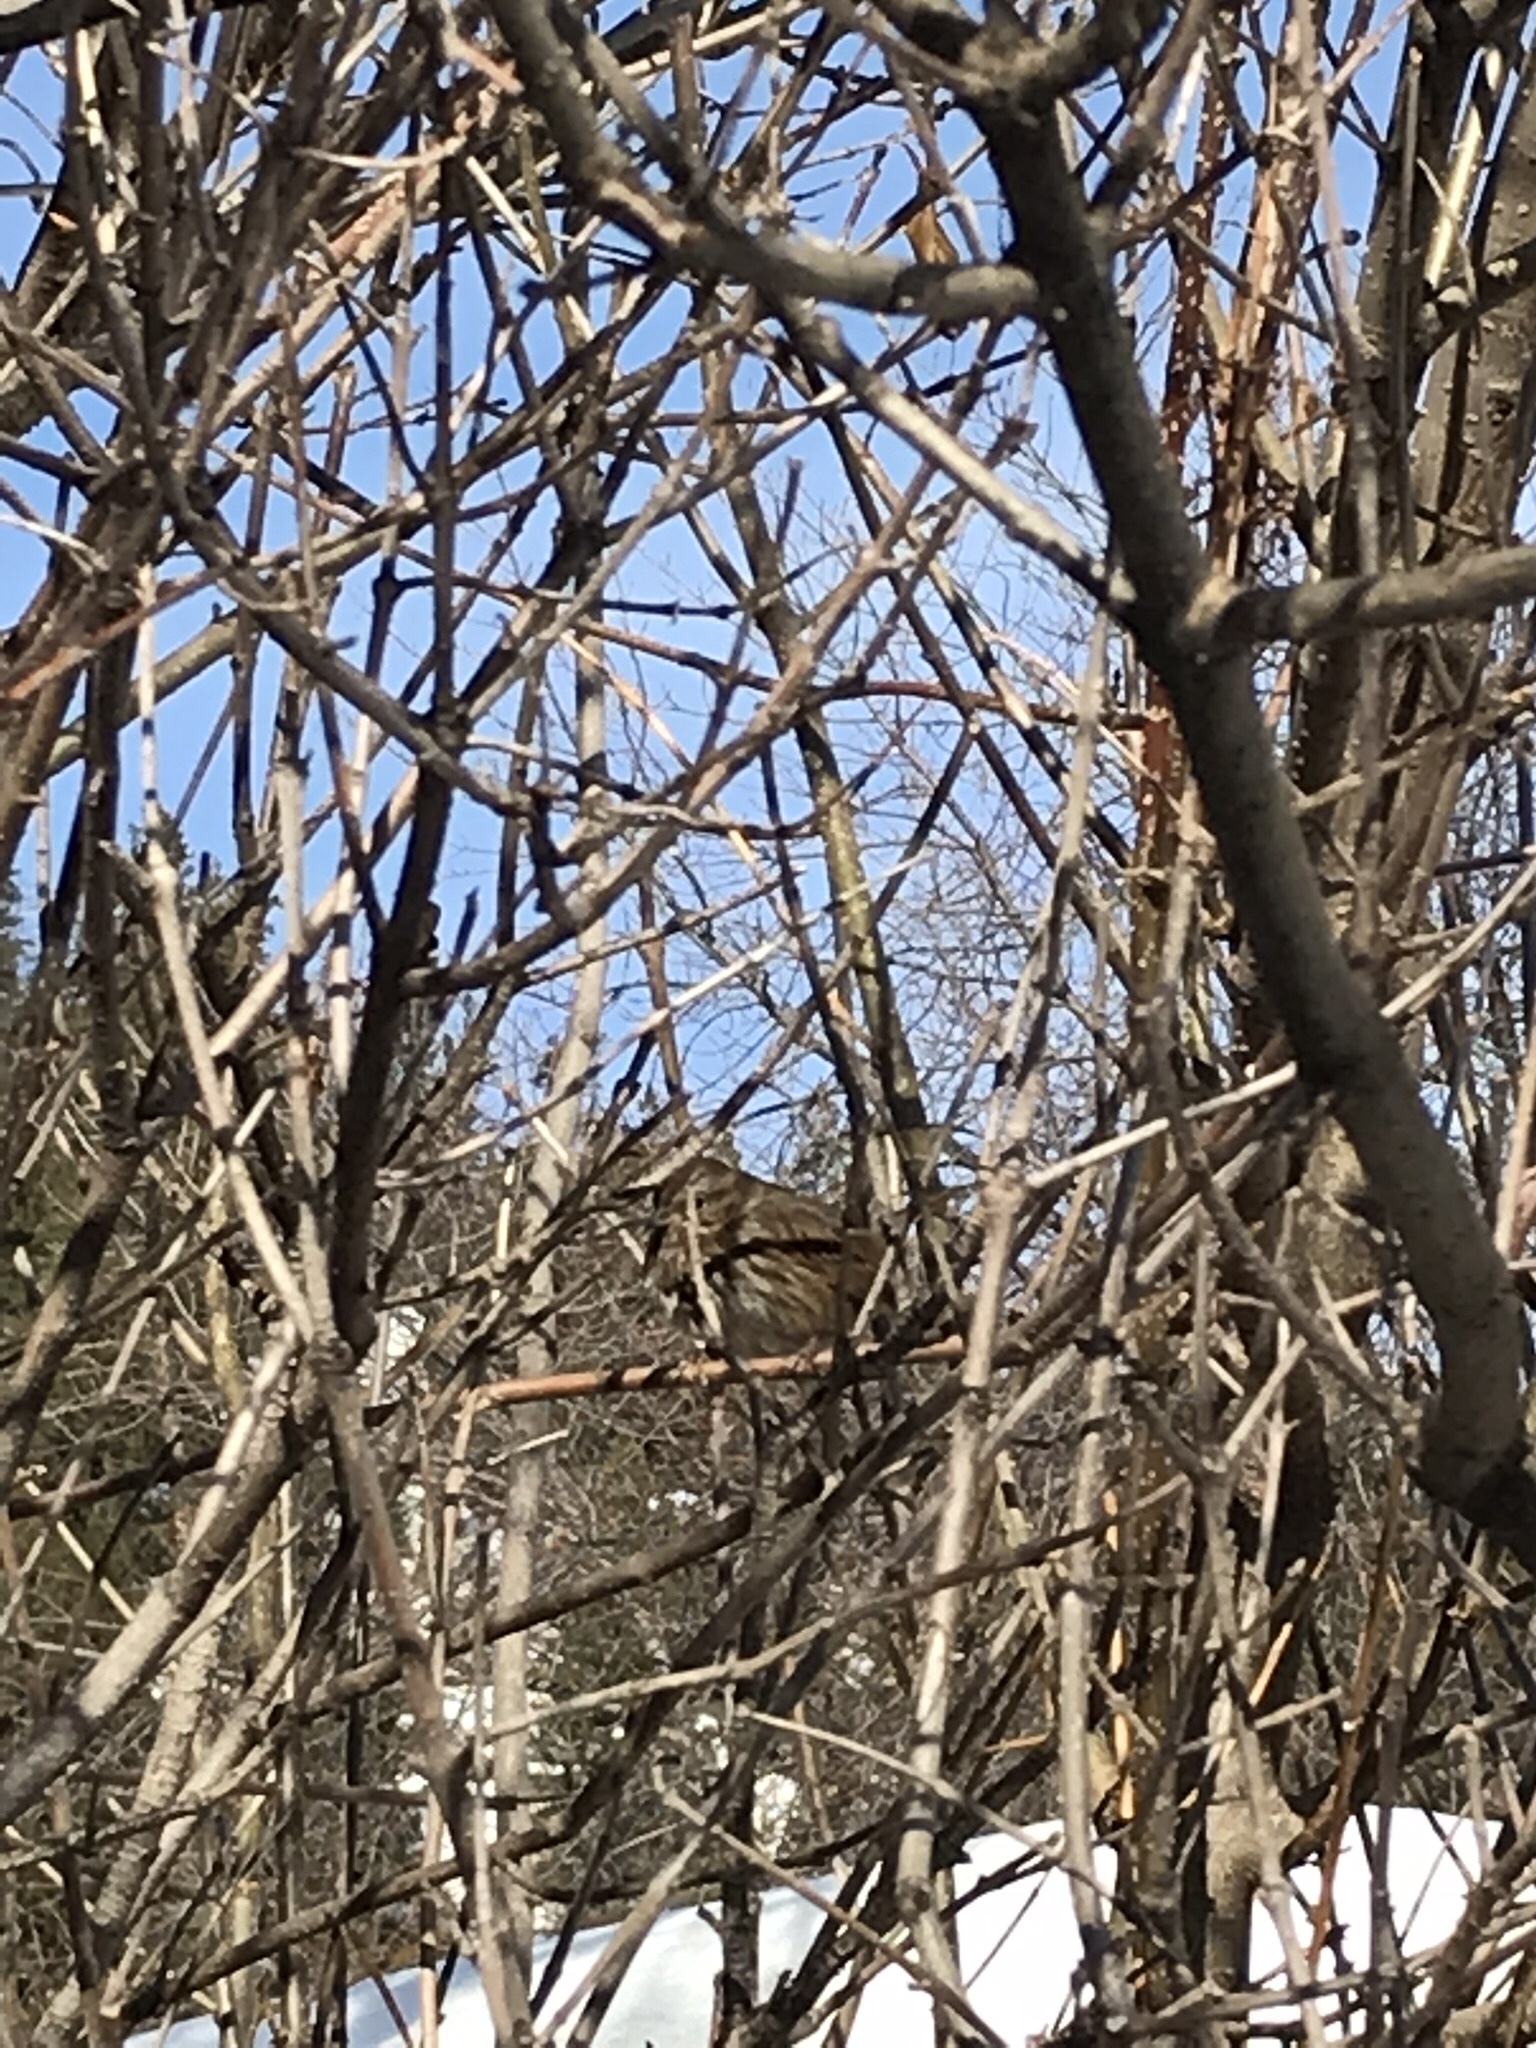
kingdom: Animalia
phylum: Chordata
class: Aves
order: Passeriformes
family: Passerellidae
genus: Melospiza
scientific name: Melospiza melodia
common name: Song sparrow
